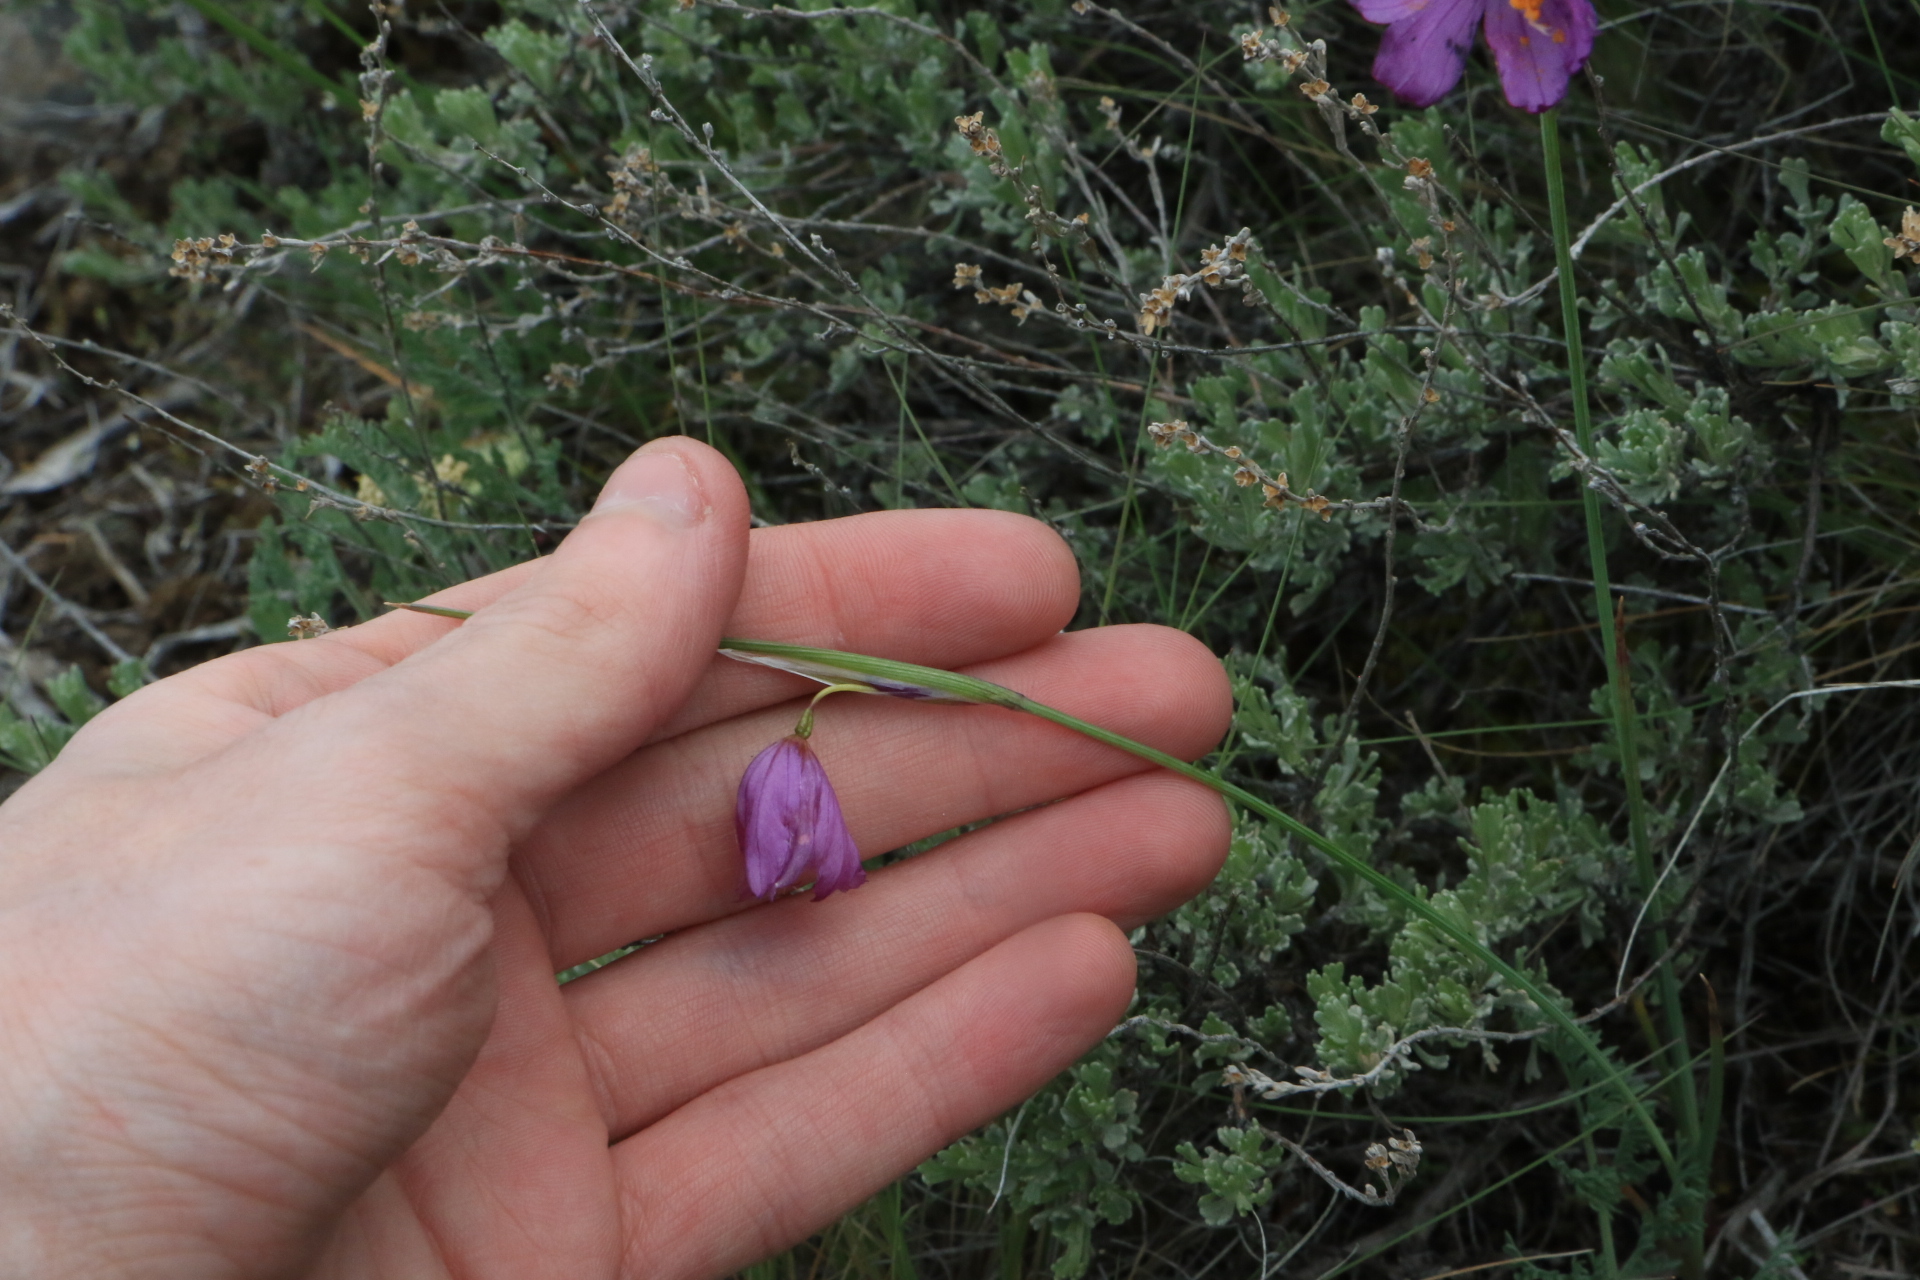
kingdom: Plantae
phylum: Tracheophyta
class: Liliopsida
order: Asparagales
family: Iridaceae
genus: Olsynium
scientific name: Olsynium douglasii
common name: Douglas' grasswidow
